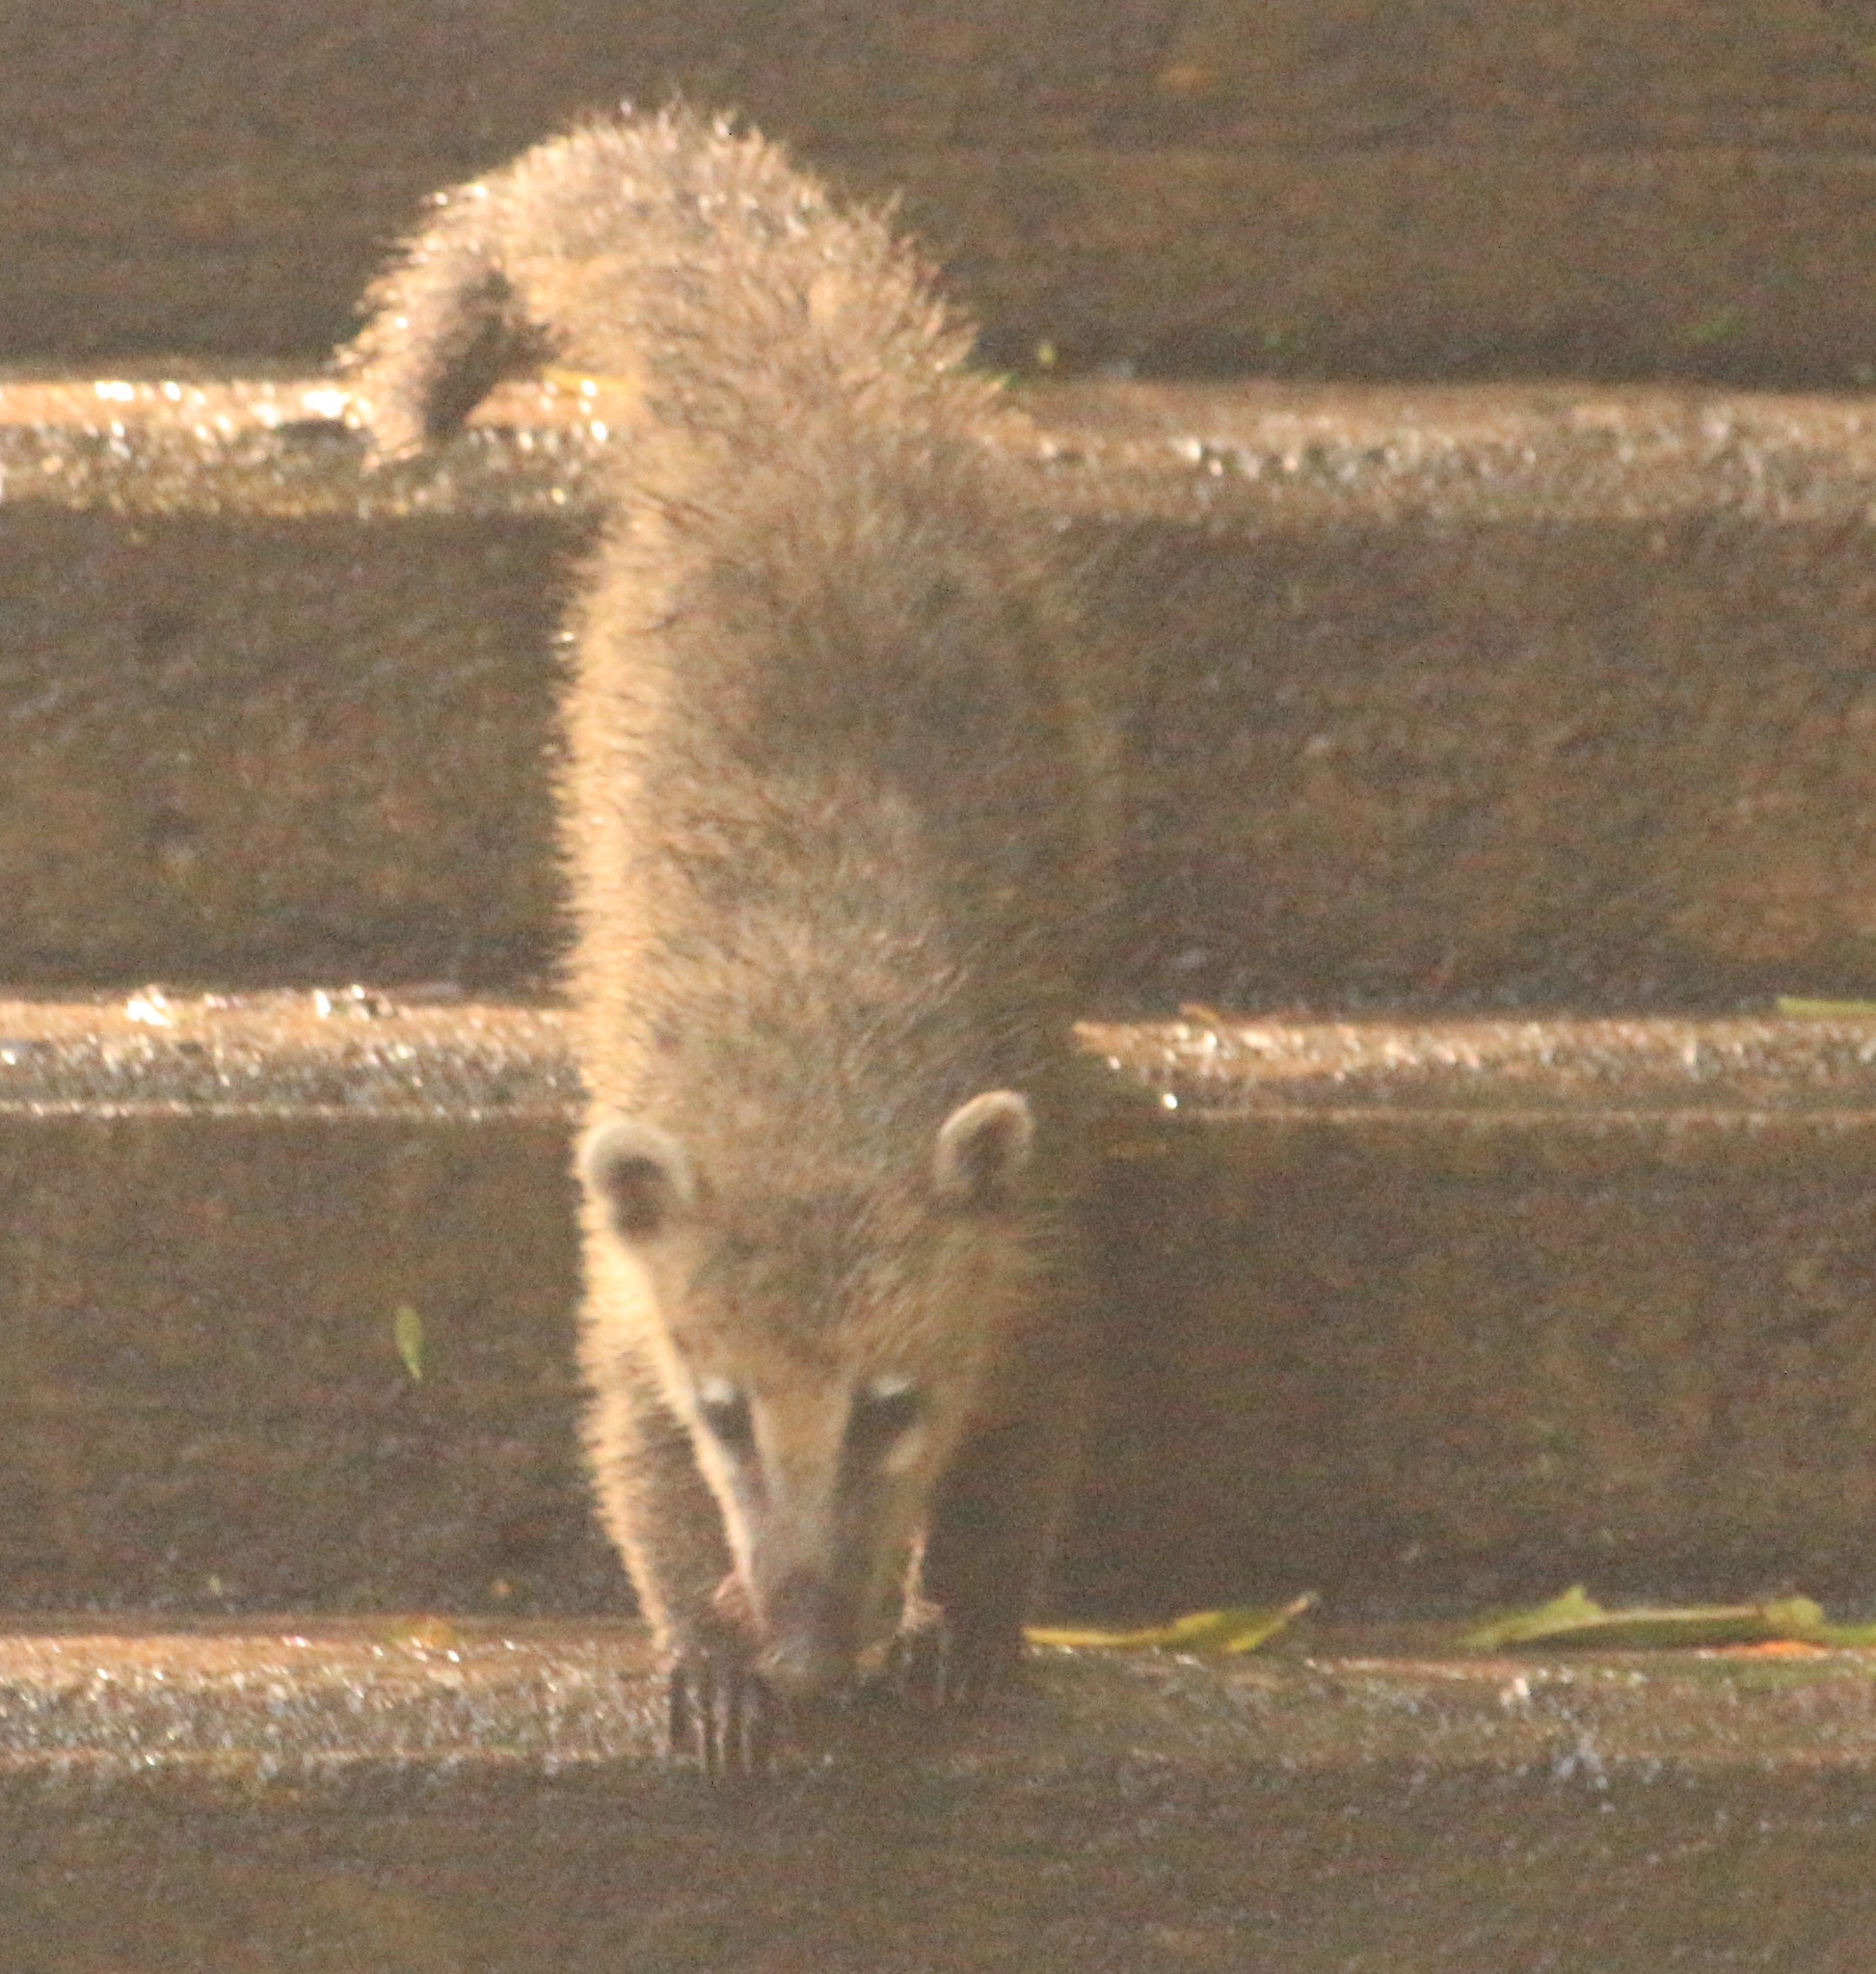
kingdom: Animalia
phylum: Chordata
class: Mammalia
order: Carnivora
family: Procyonidae
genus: Nasua
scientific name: Nasua nasua
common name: South american coati
